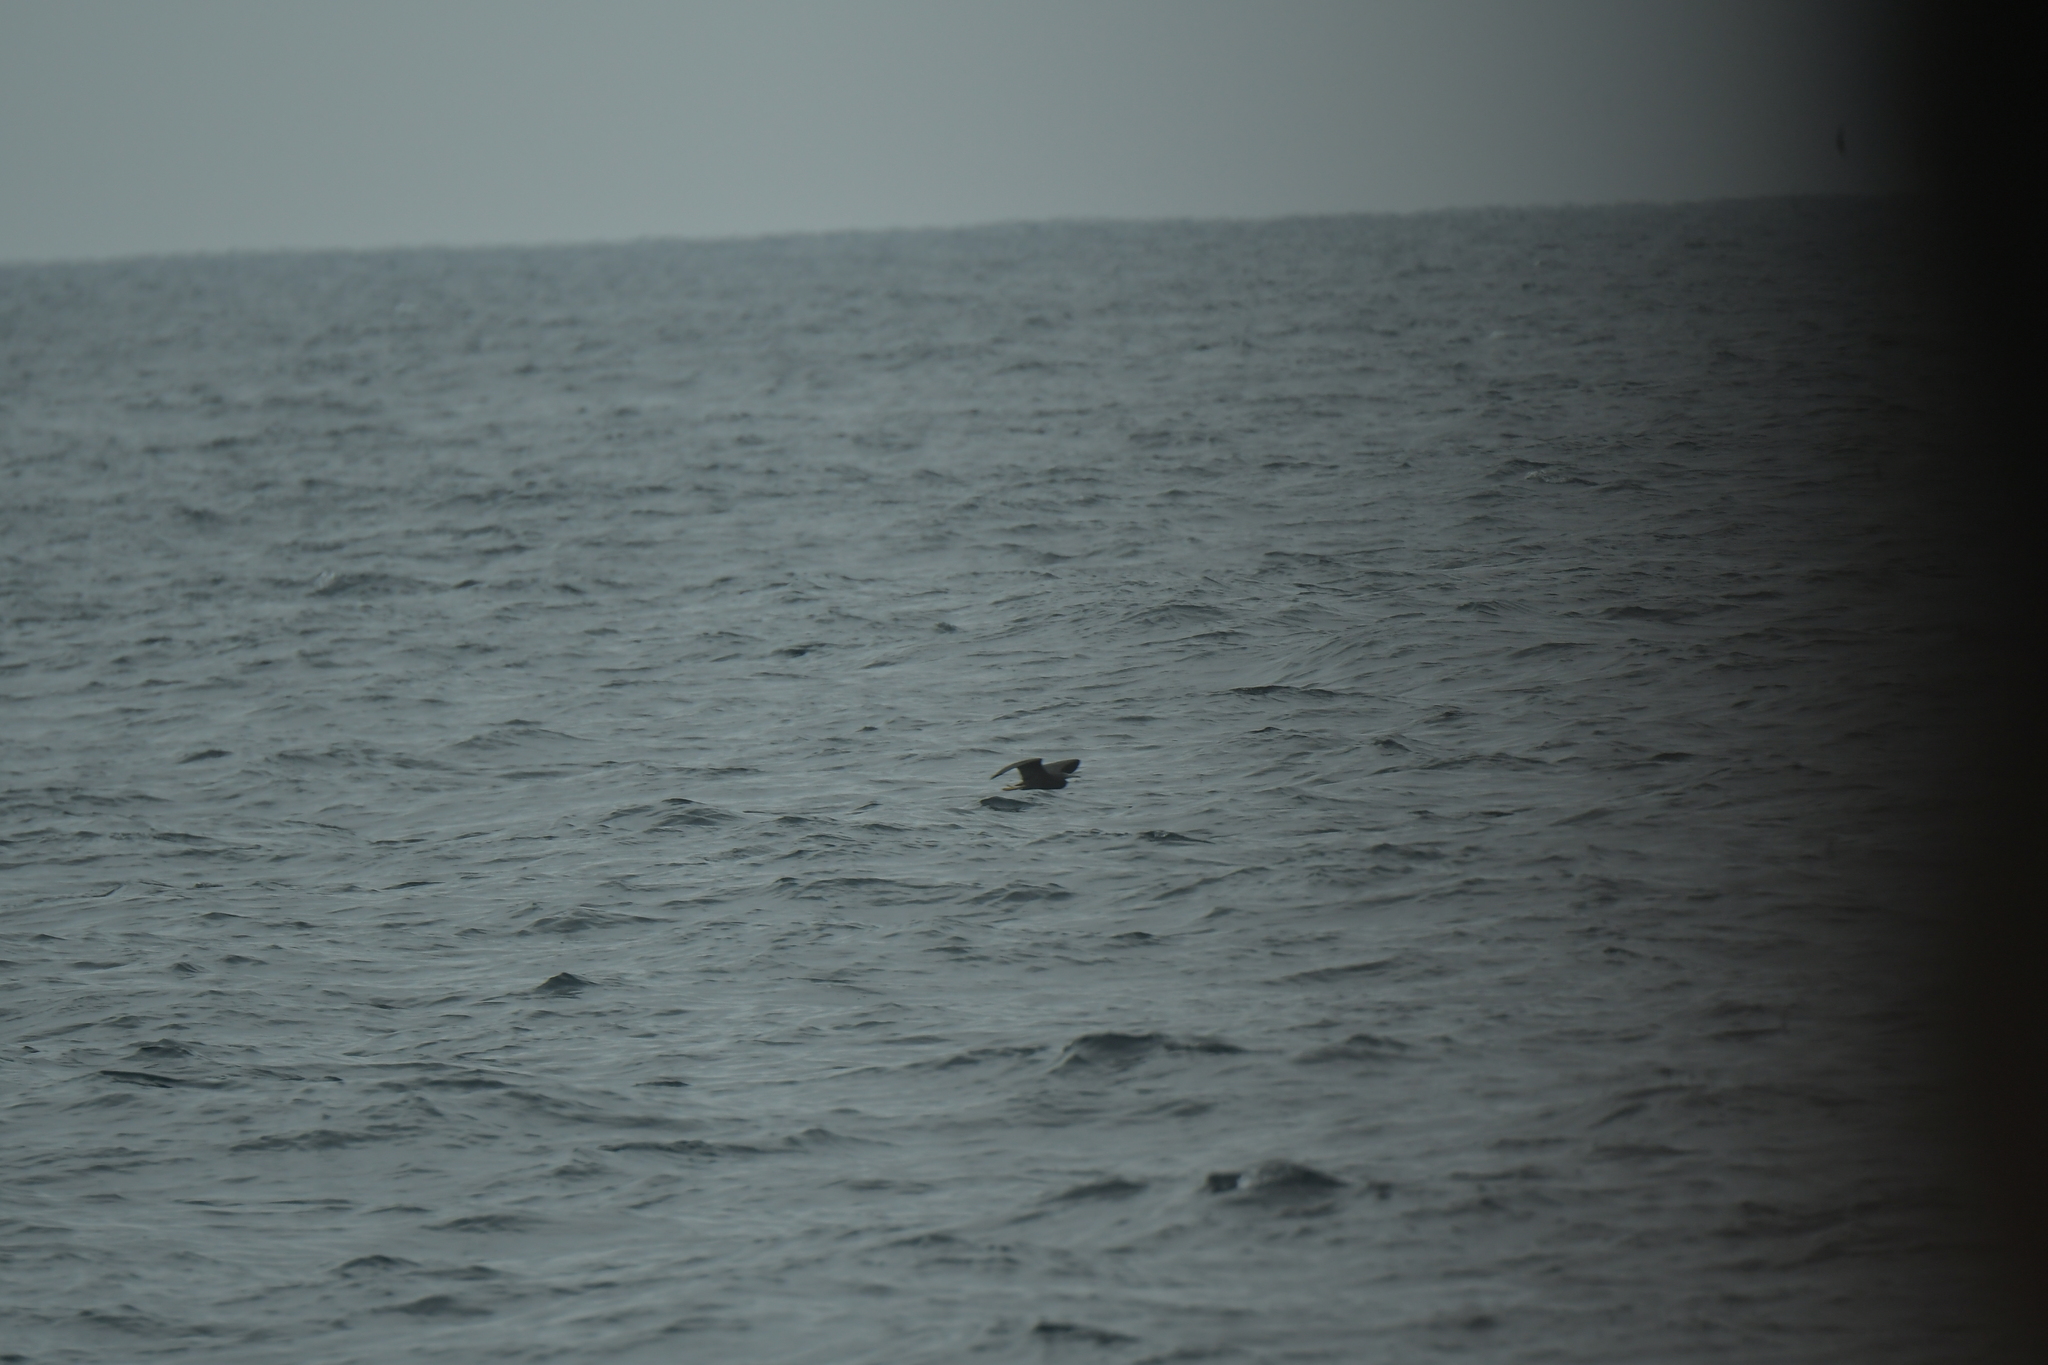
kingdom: Animalia
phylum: Chordata
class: Aves
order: Pelecaniformes
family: Ardeidae
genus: Egretta
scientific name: Egretta sacra
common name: Pacific reef heron
